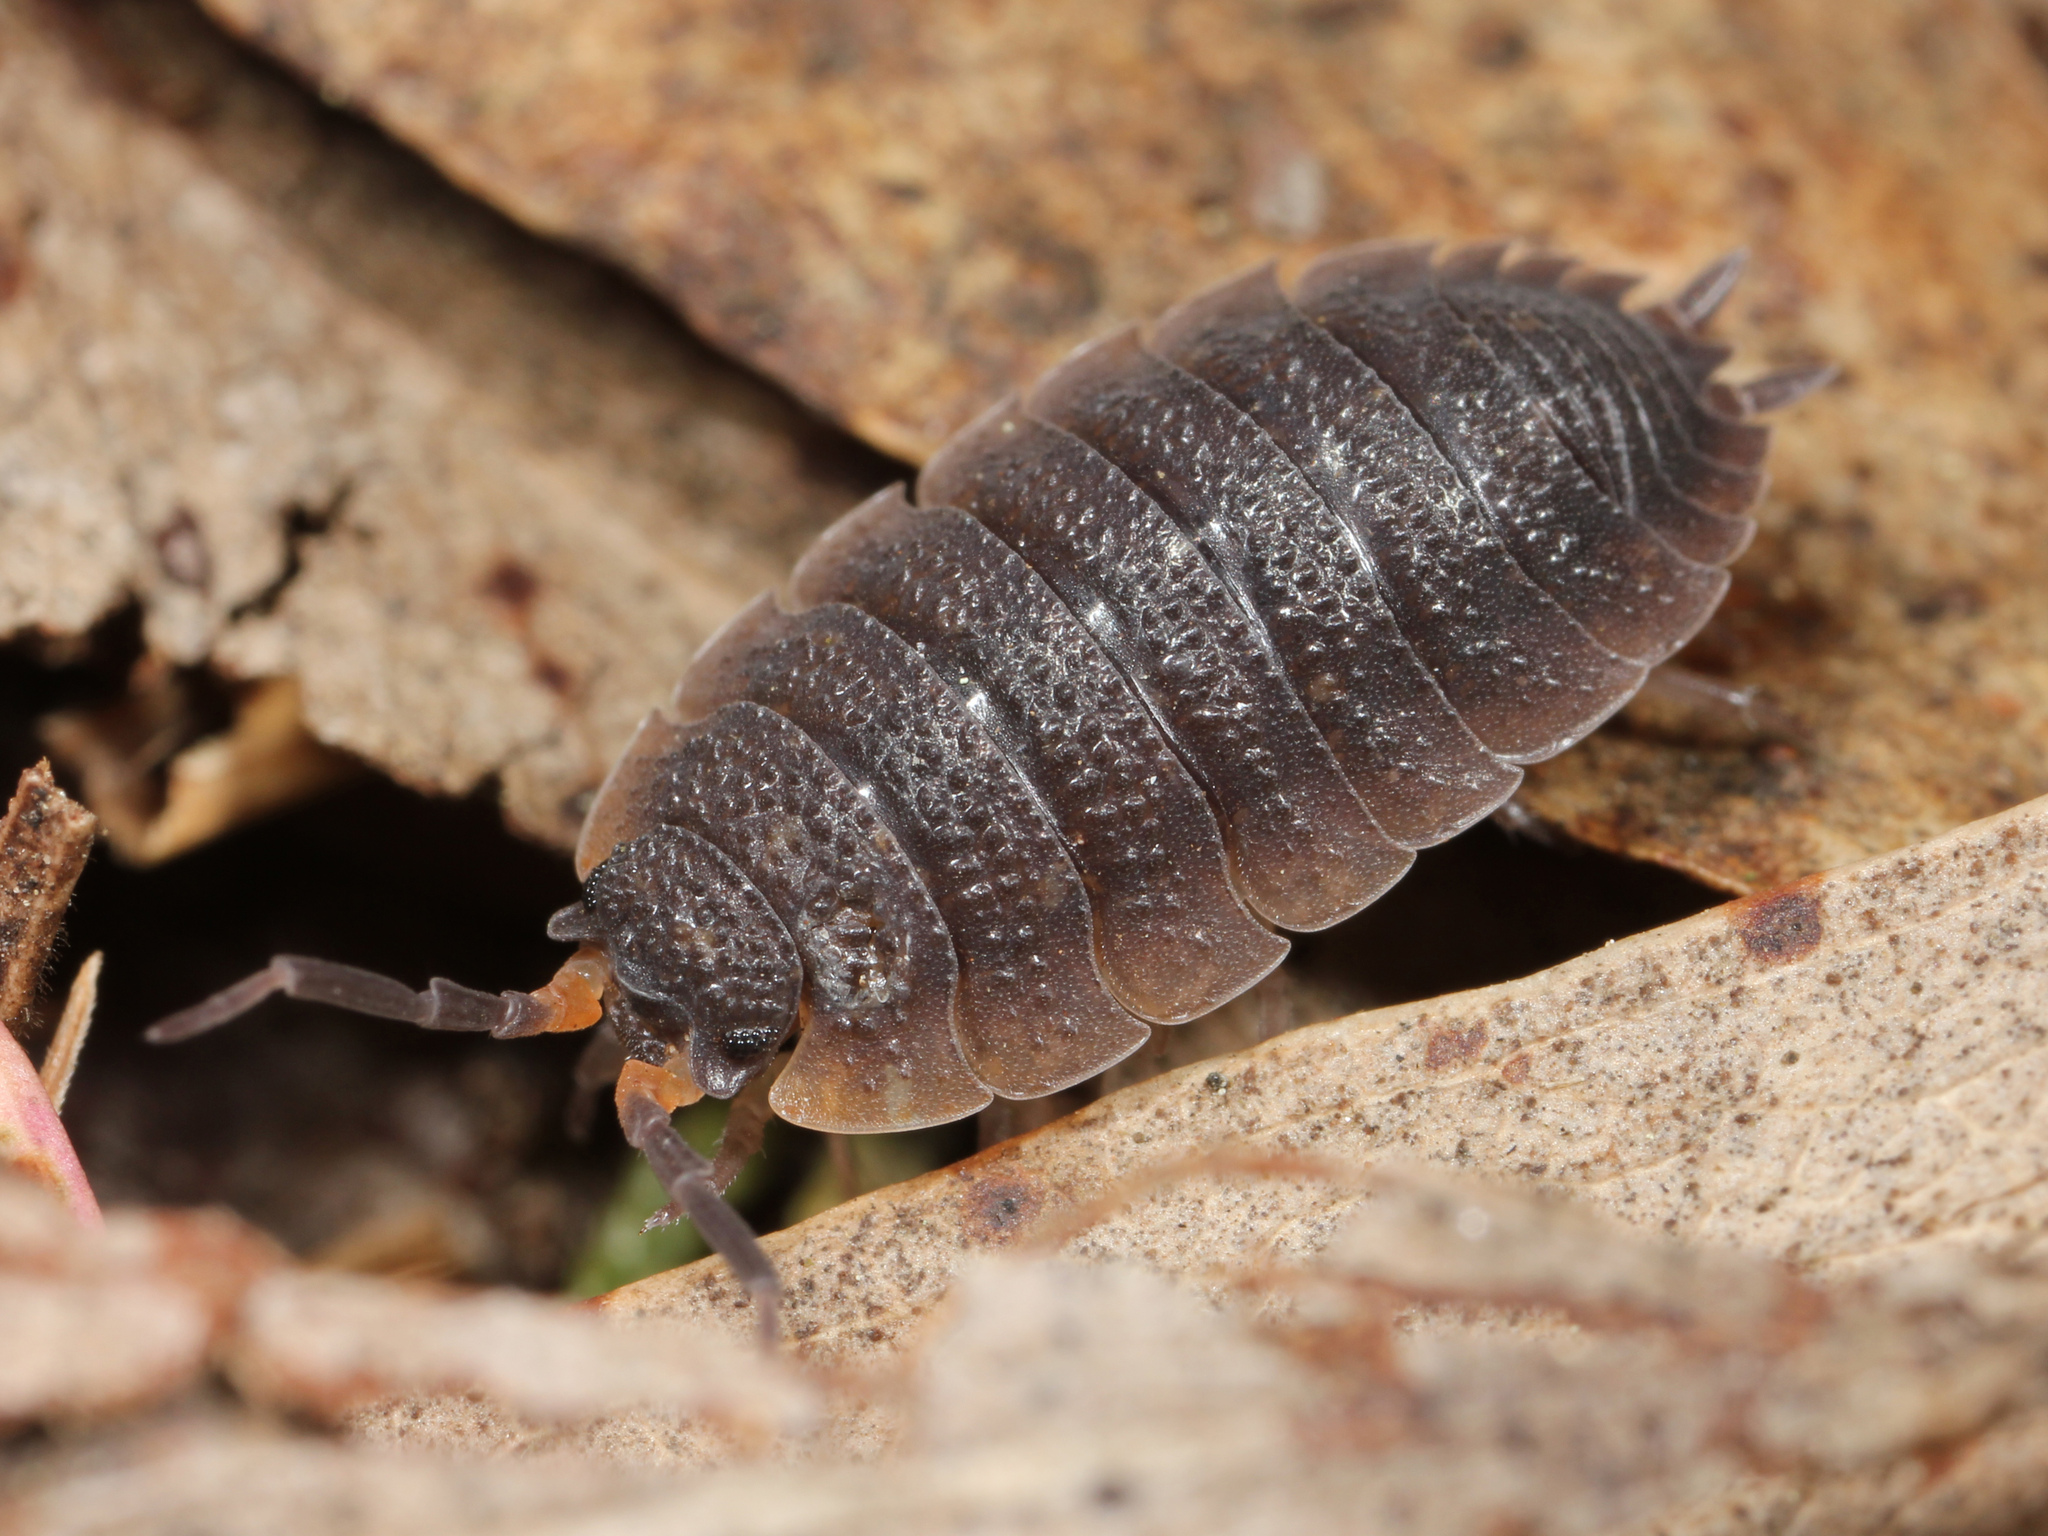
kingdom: Animalia
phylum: Arthropoda
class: Malacostraca
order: Isopoda
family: Porcellionidae
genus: Porcellio
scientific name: Porcellio scaber
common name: Common rough woodlouse
